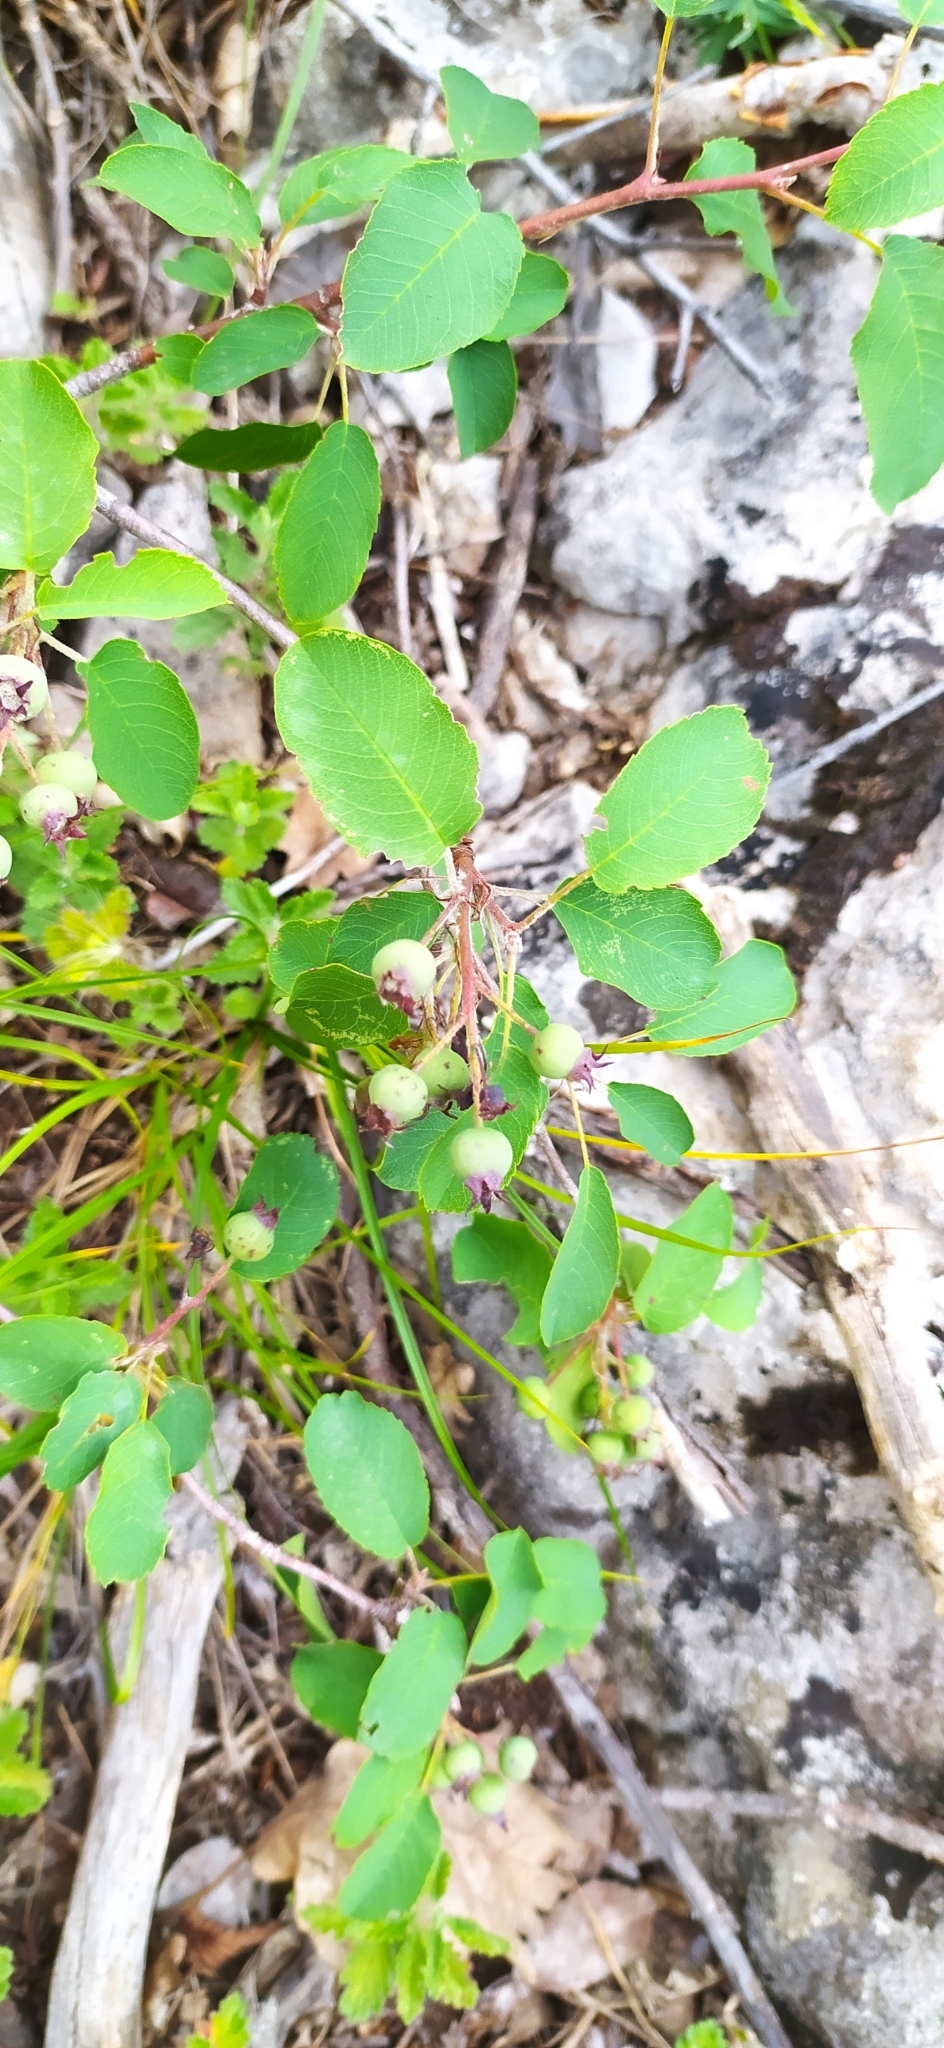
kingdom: Plantae
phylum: Tracheophyta
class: Magnoliopsida
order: Rosales
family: Rosaceae
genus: Amelanchier
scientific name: Amelanchier ovalis
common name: Serviceberry
